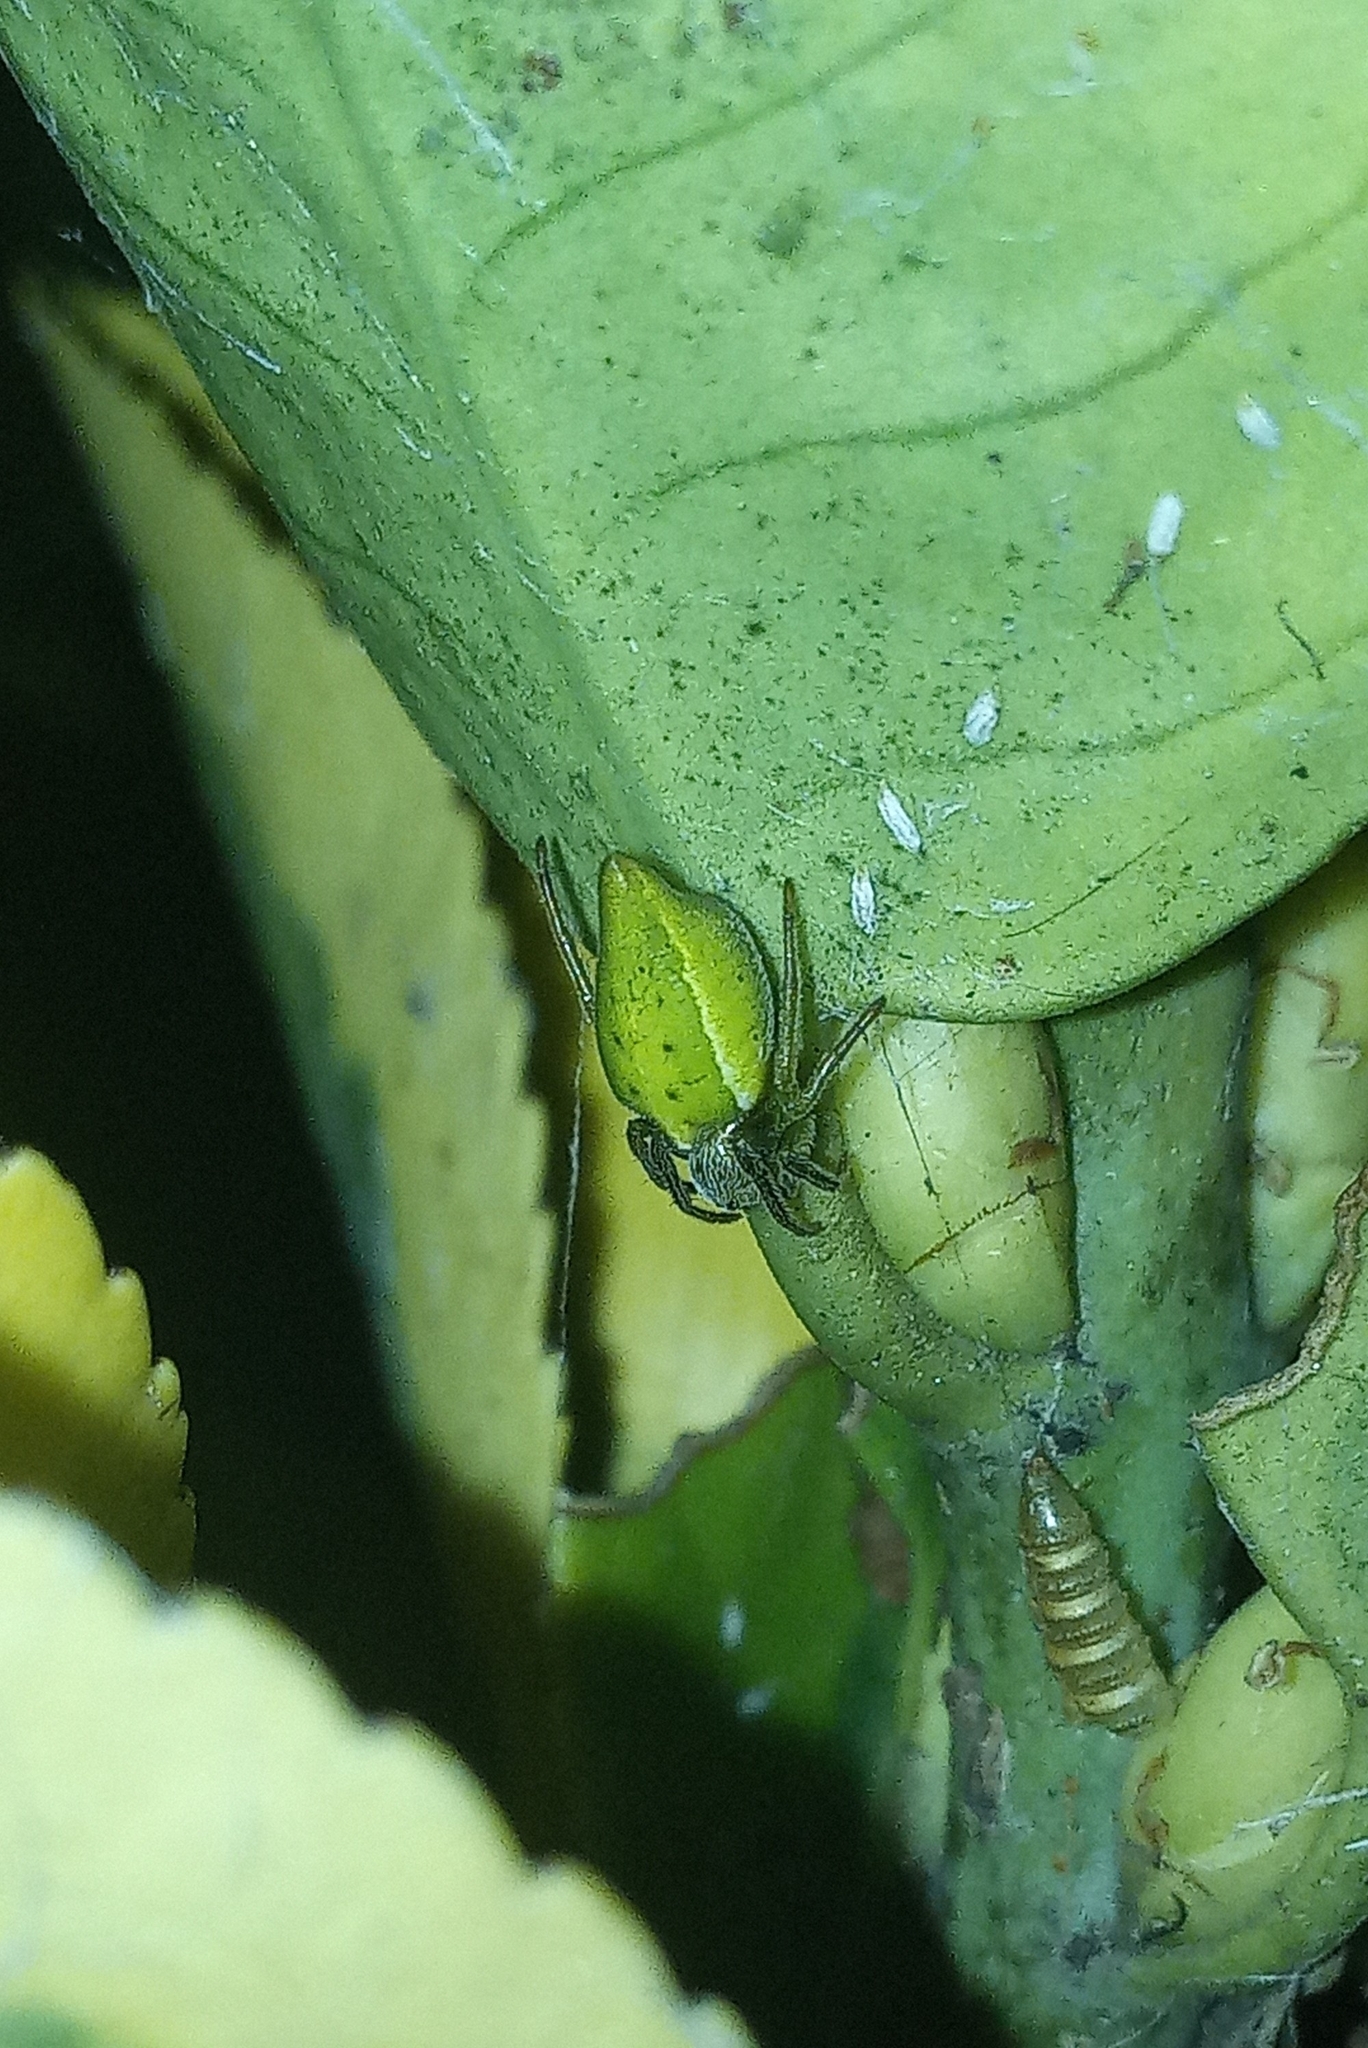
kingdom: Animalia
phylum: Arthropoda
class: Arachnida
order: Araneae
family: Araneidae
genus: Alpaida
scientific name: Alpaida costai
